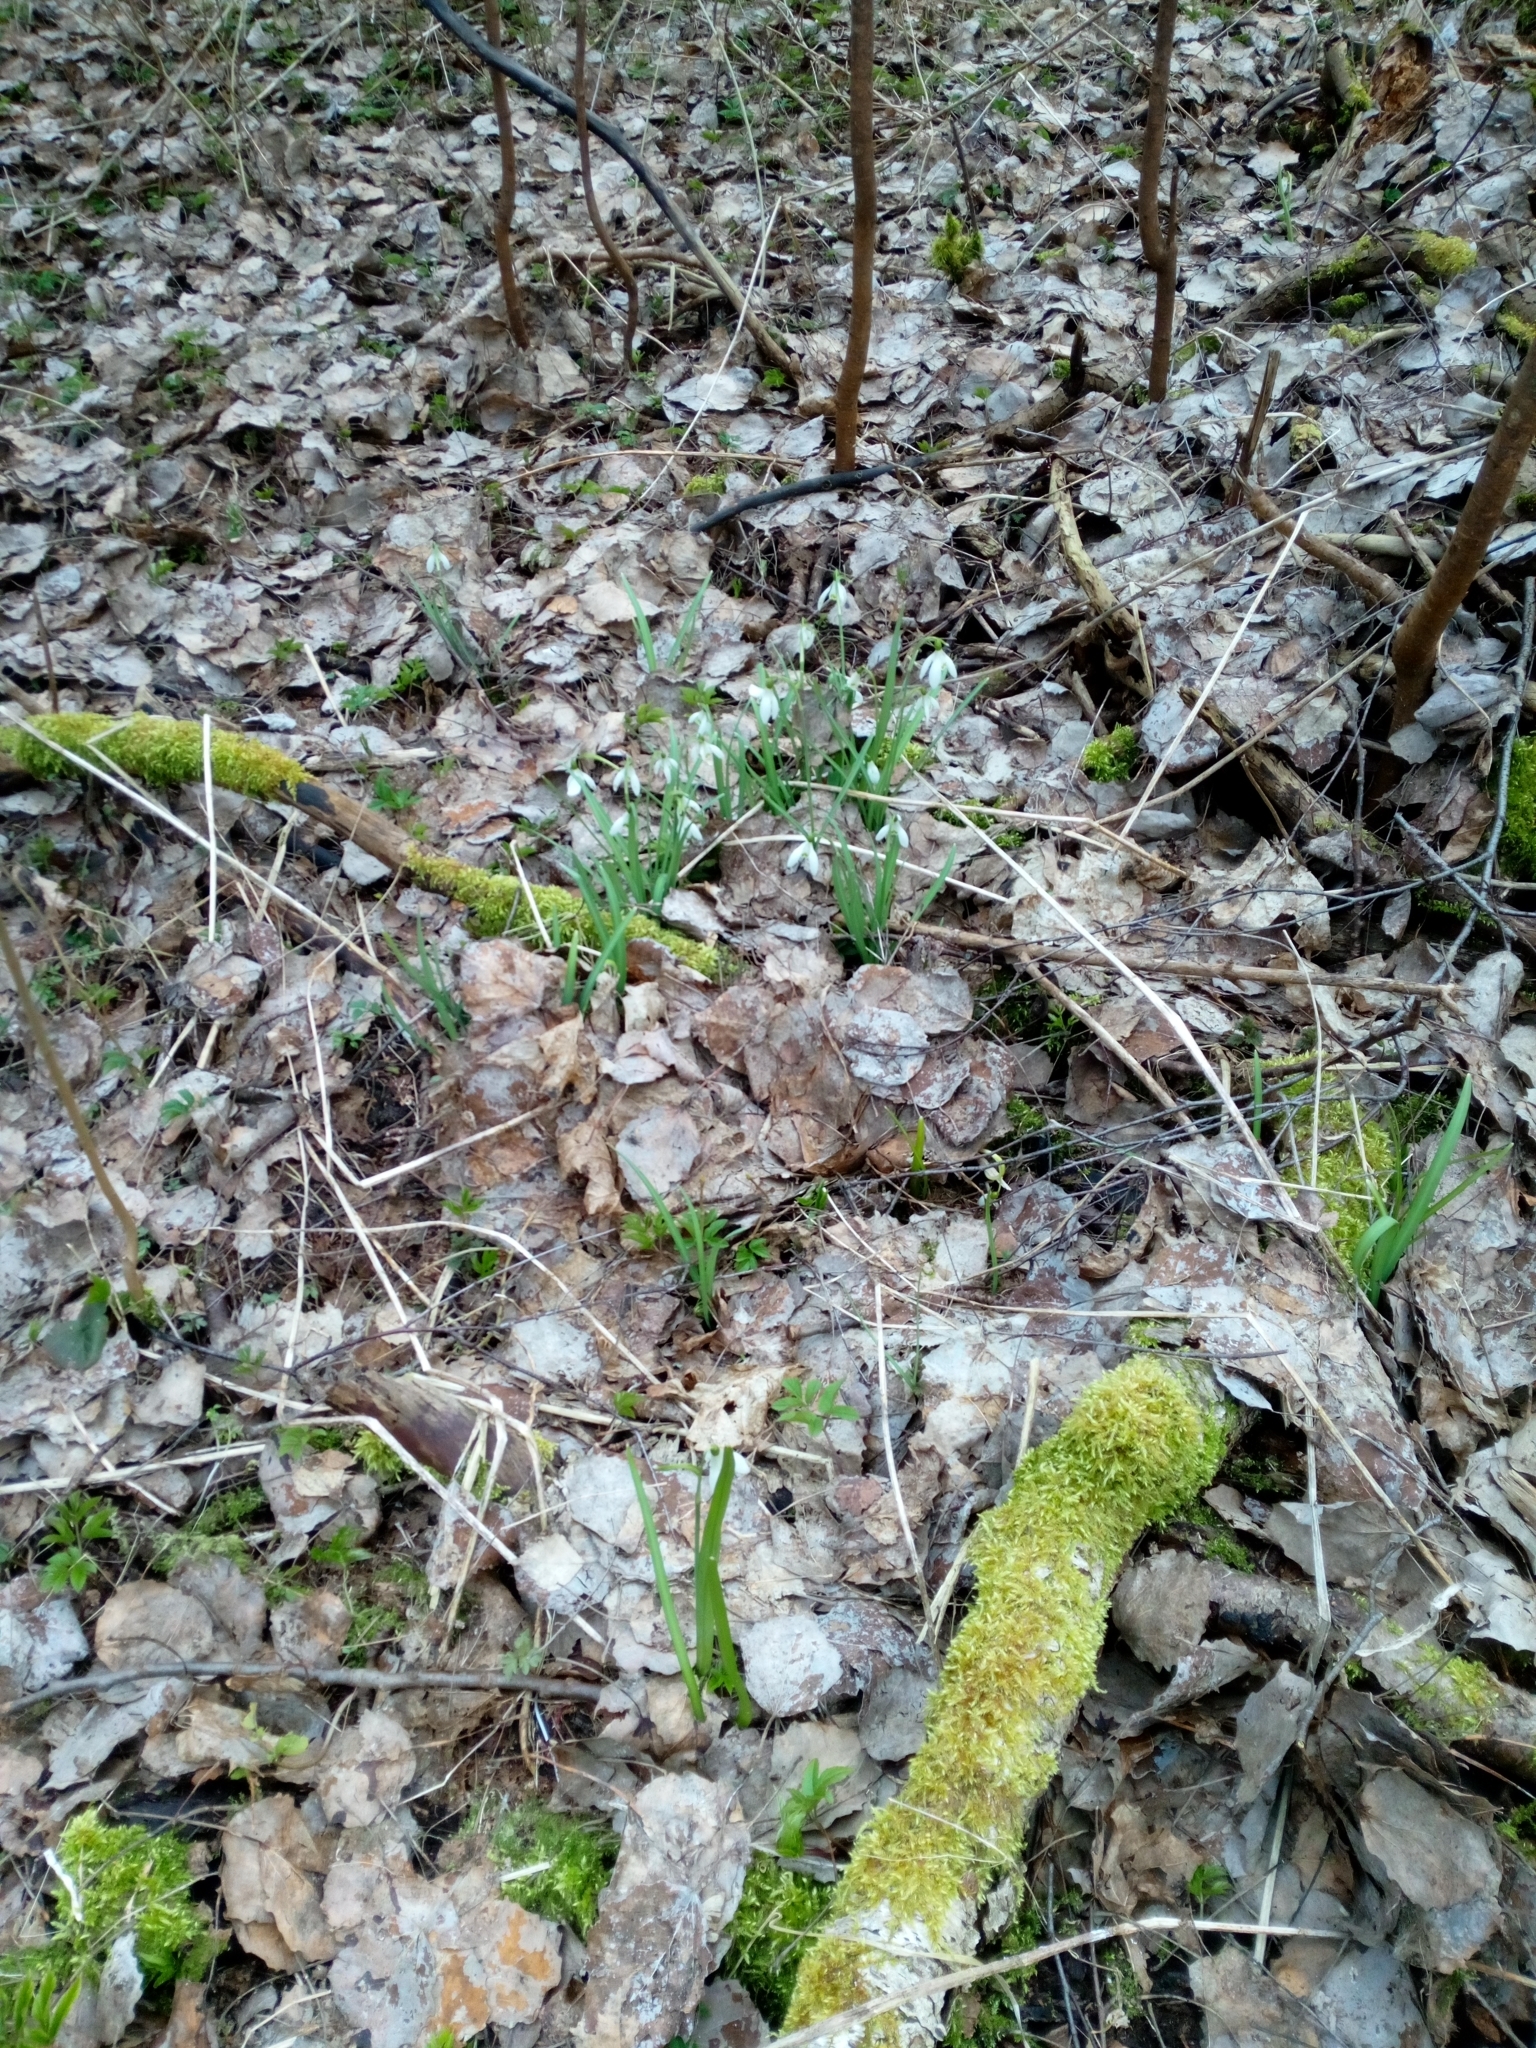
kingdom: Plantae
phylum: Tracheophyta
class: Liliopsida
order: Asparagales
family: Amaryllidaceae
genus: Galanthus
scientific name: Galanthus nivalis
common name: Snowdrop
